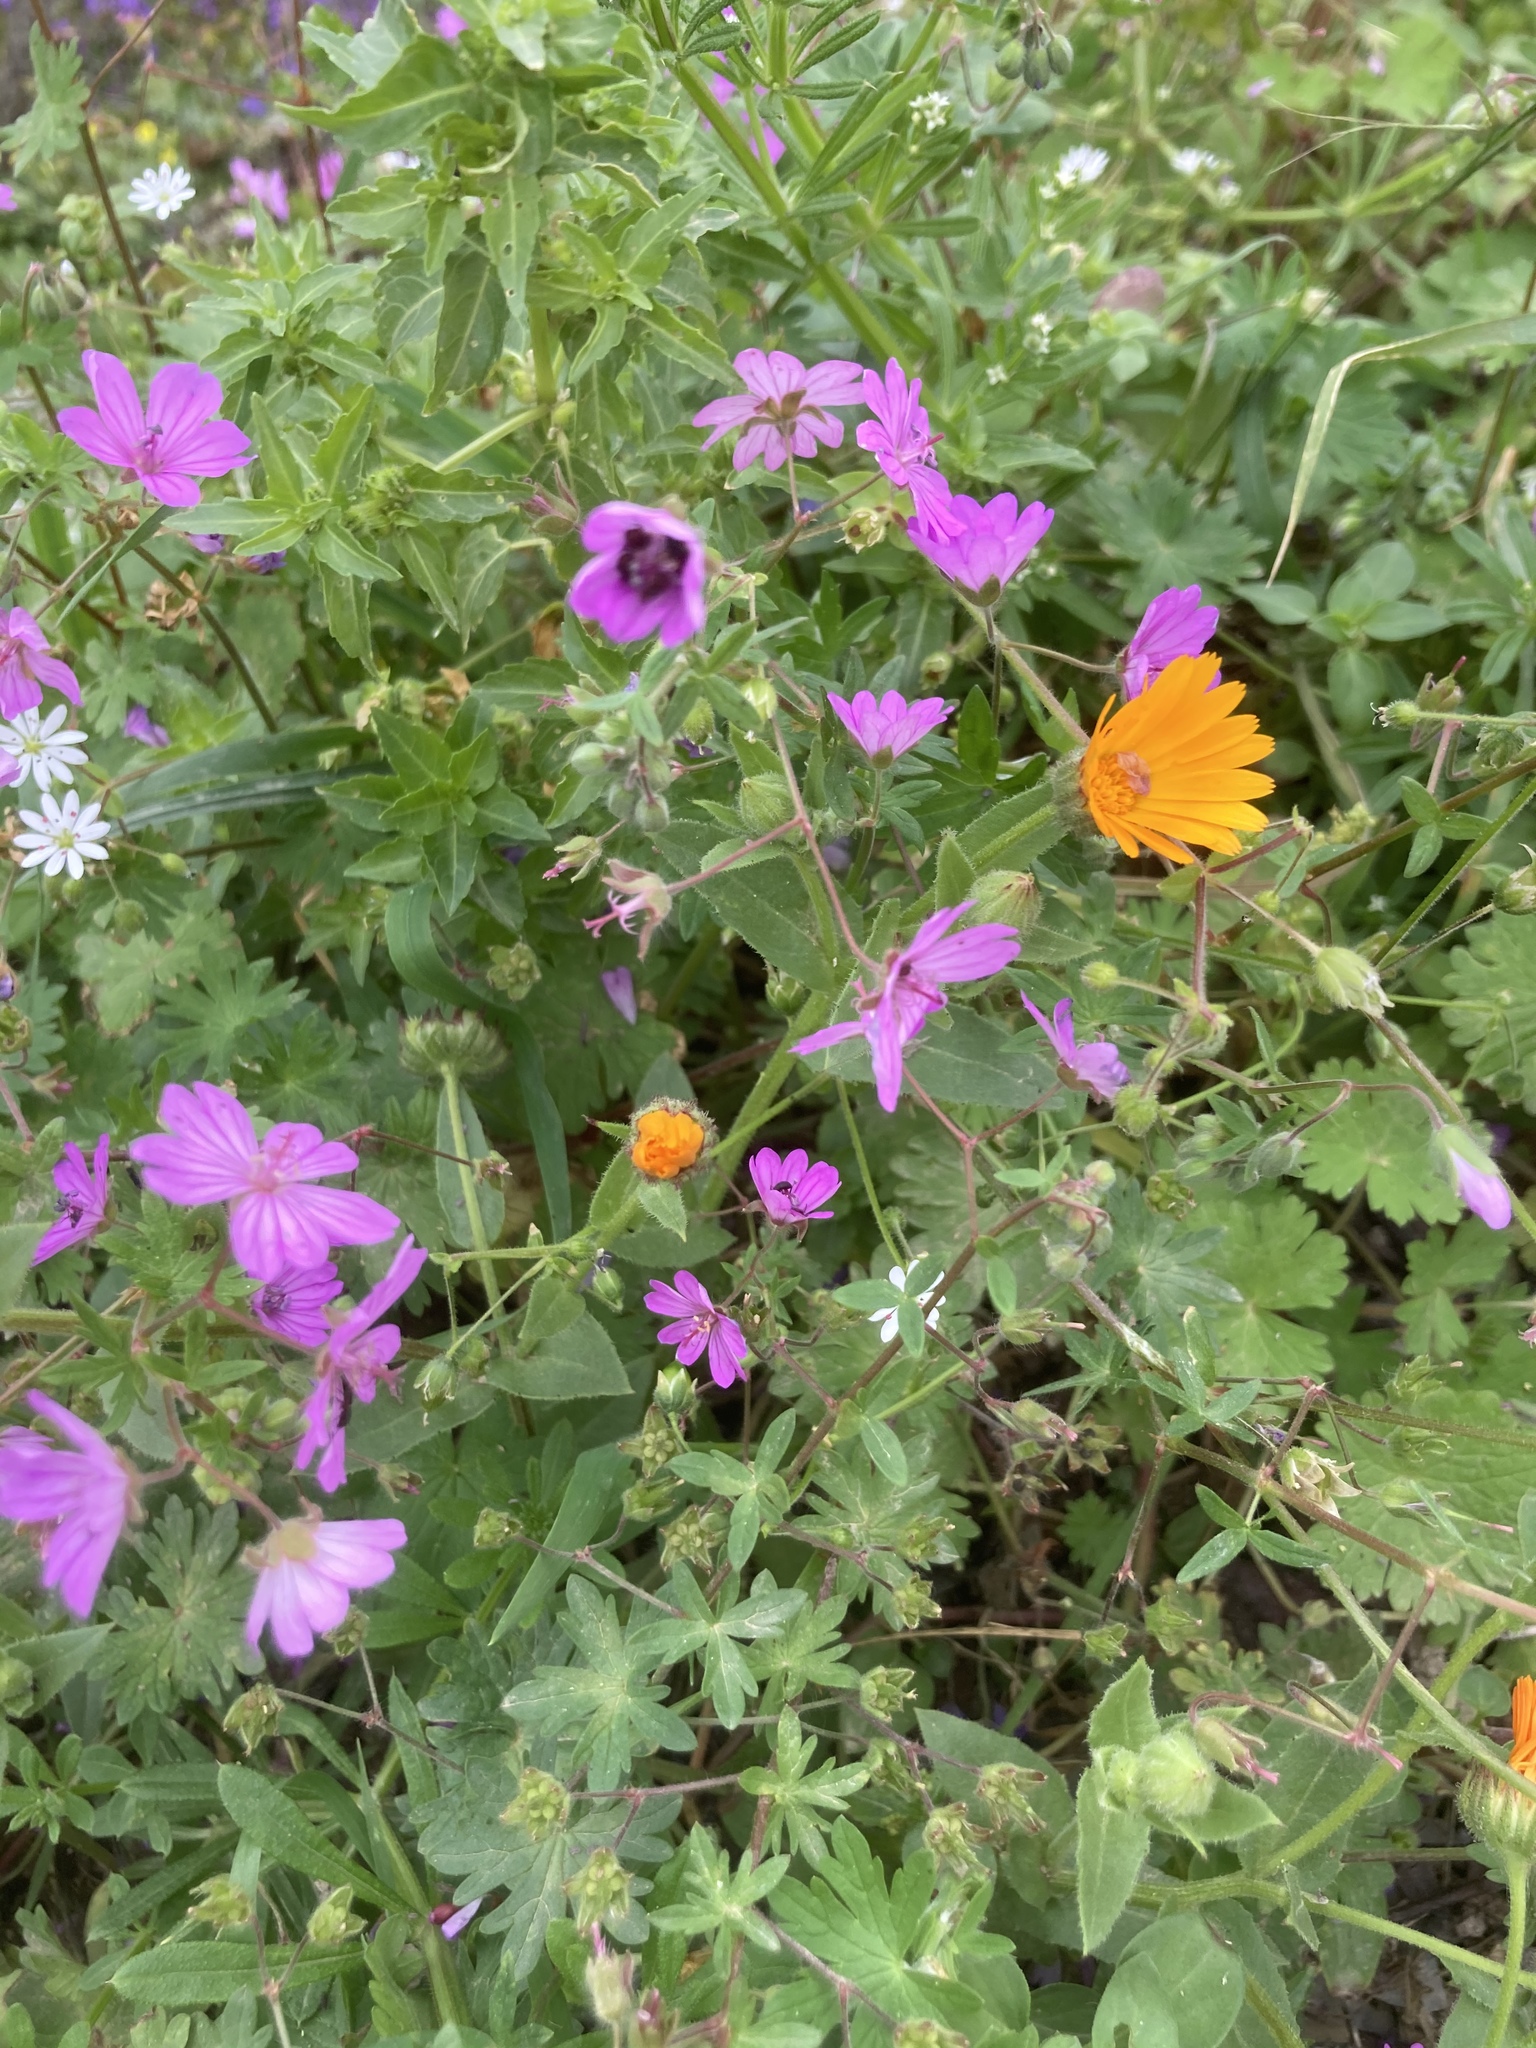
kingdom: Plantae
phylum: Tracheophyta
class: Magnoliopsida
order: Caryophyllales
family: Caryophyllaceae
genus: Stellaria
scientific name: Stellaria cupaniana
